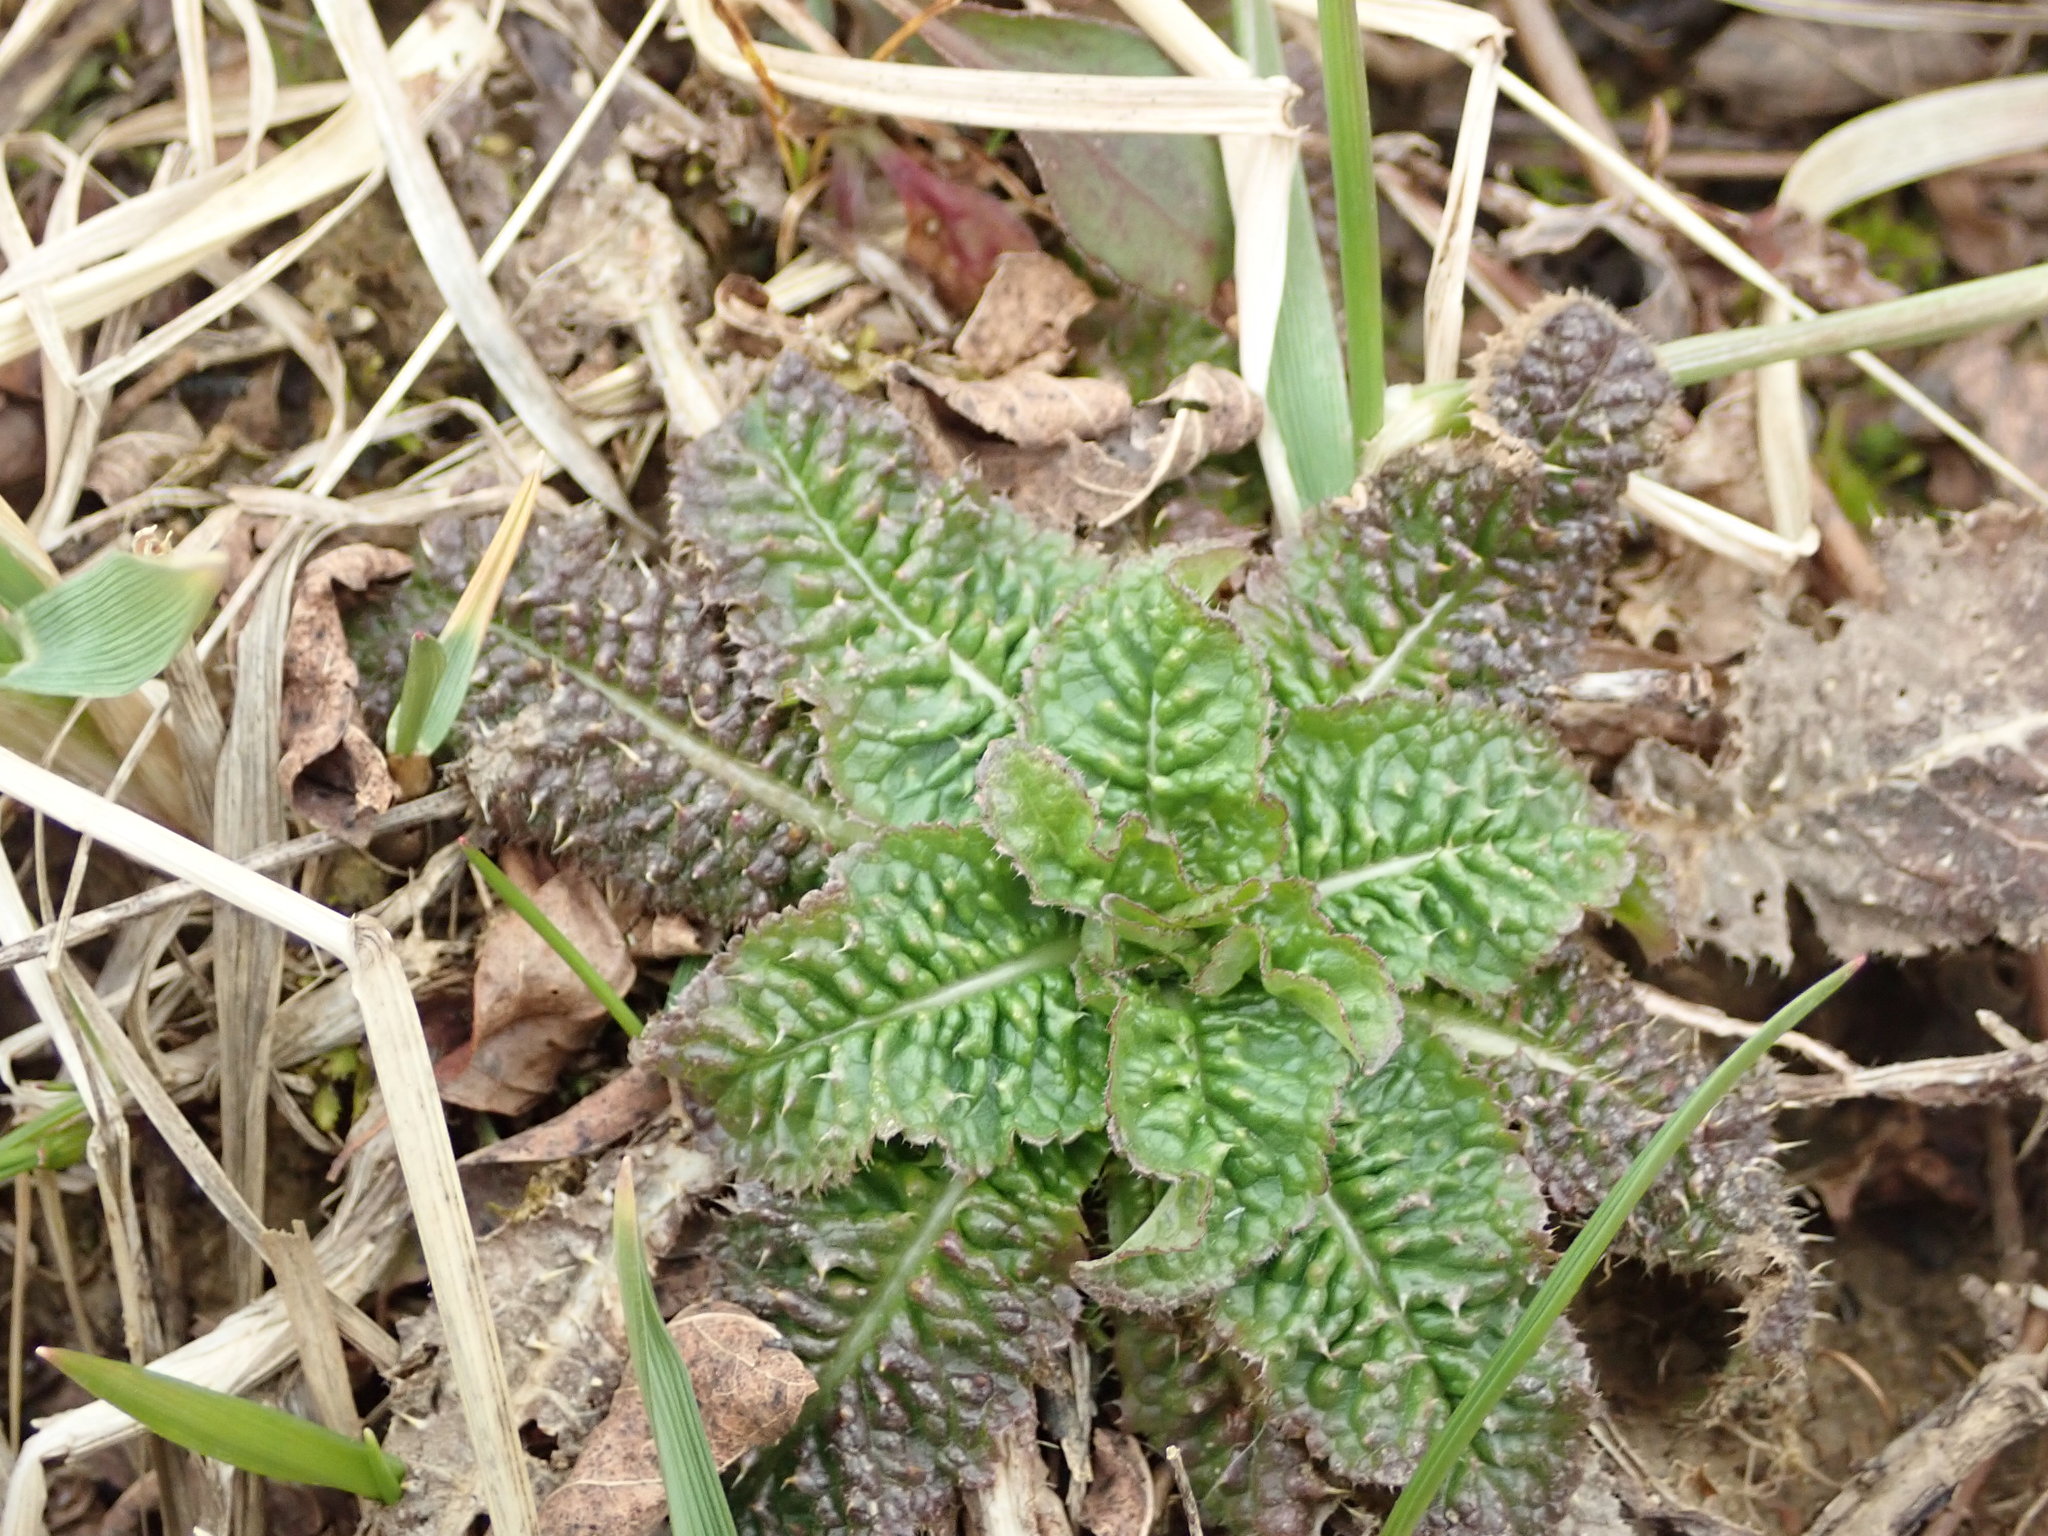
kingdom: Plantae
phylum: Tracheophyta
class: Magnoliopsida
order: Dipsacales
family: Caprifoliaceae
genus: Dipsacus
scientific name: Dipsacus fullonum
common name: Teasel
